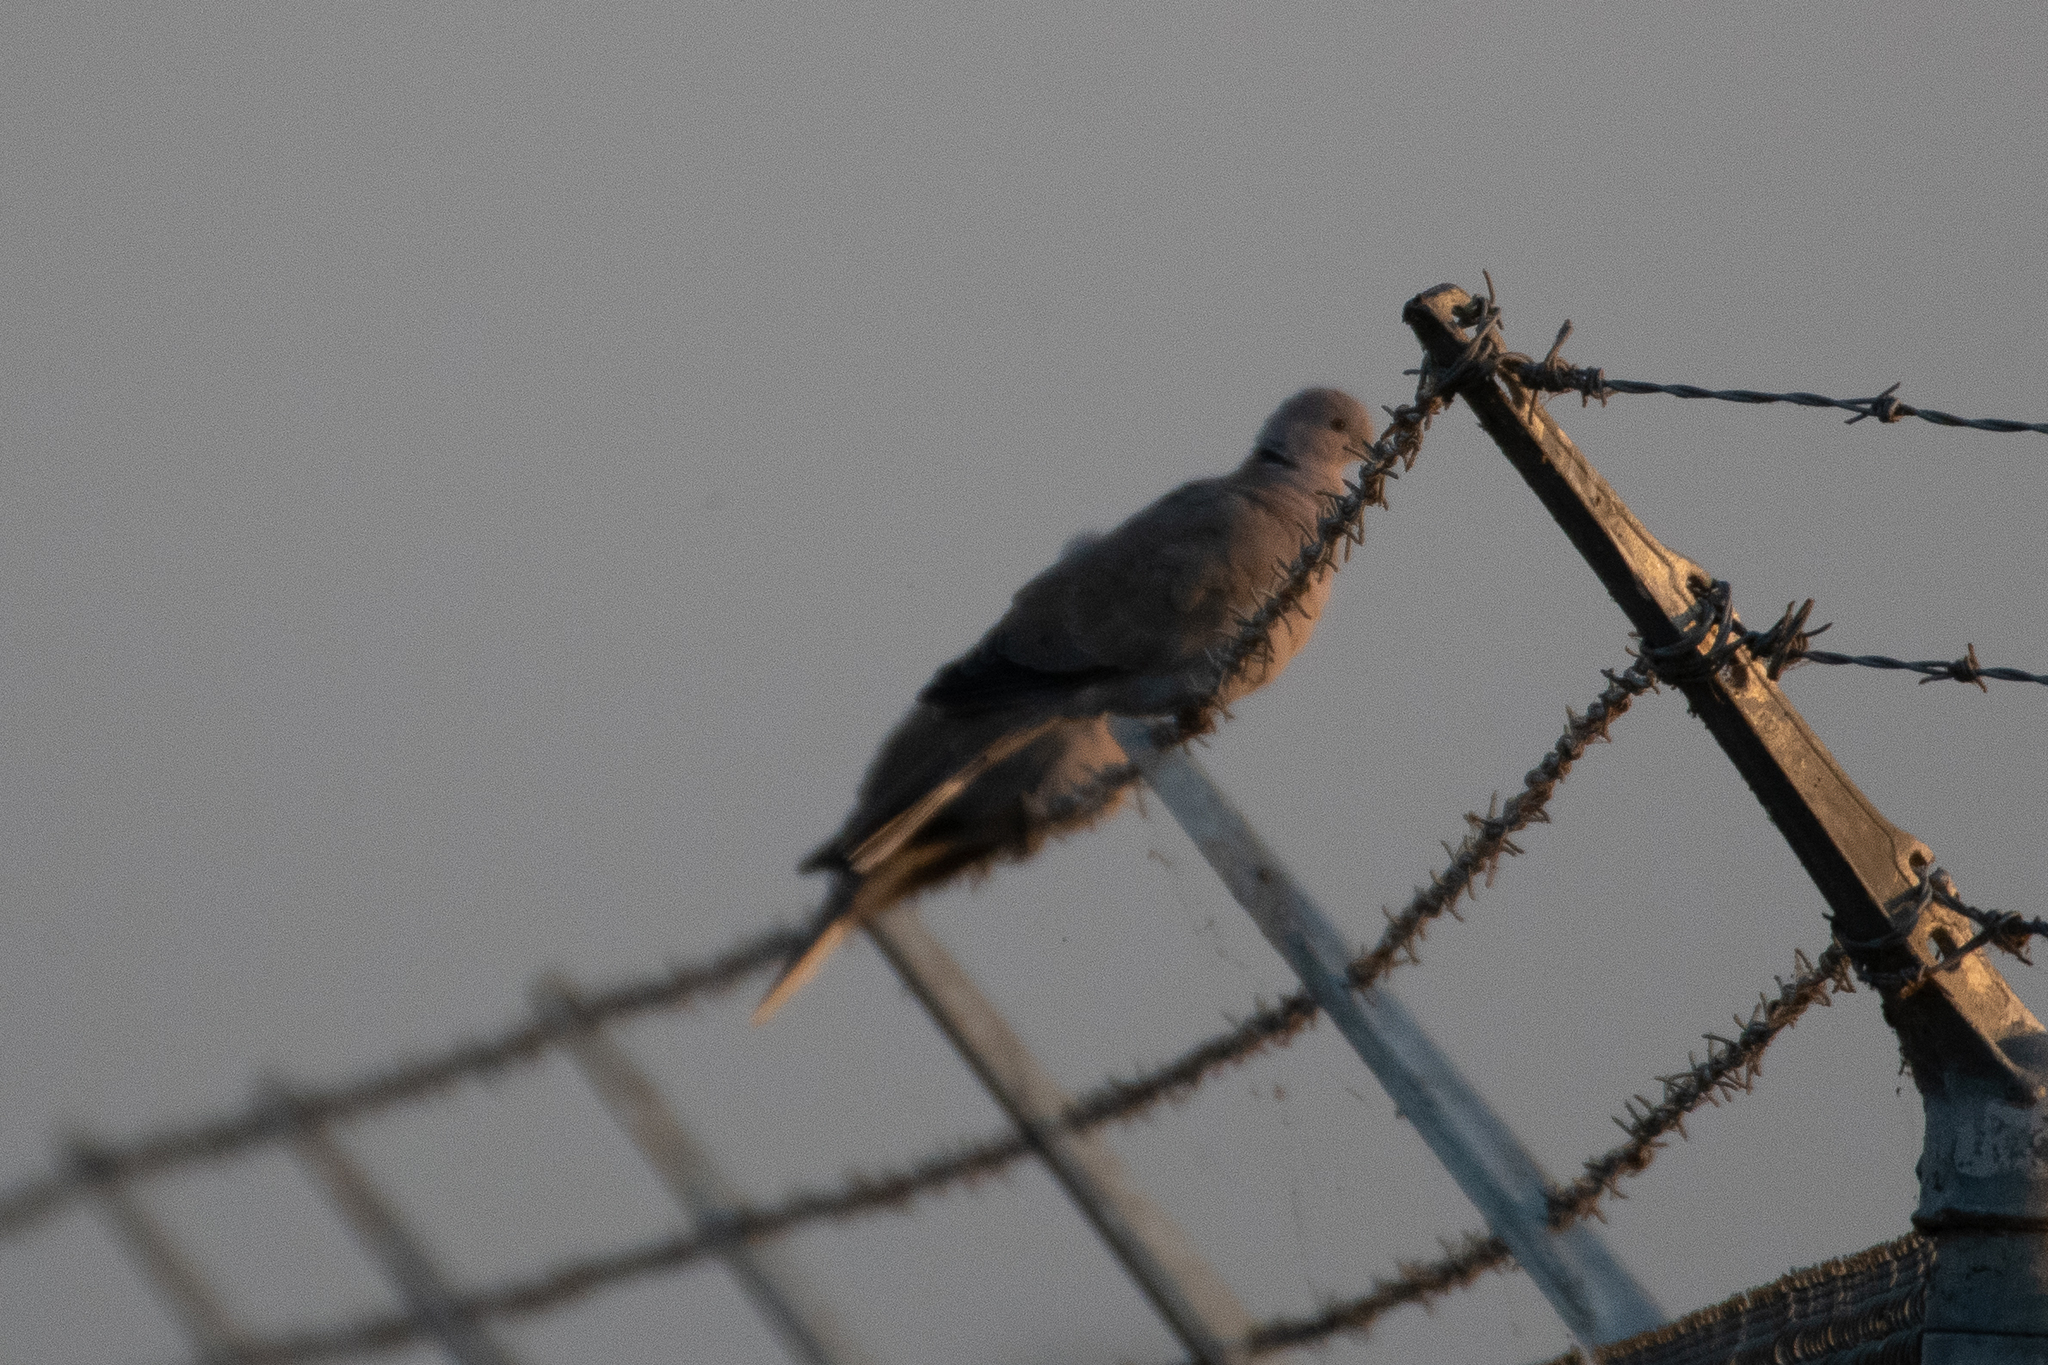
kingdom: Animalia
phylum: Chordata
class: Aves
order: Columbiformes
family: Columbidae
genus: Streptopelia
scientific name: Streptopelia decaocto
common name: Eurasian collared dove
